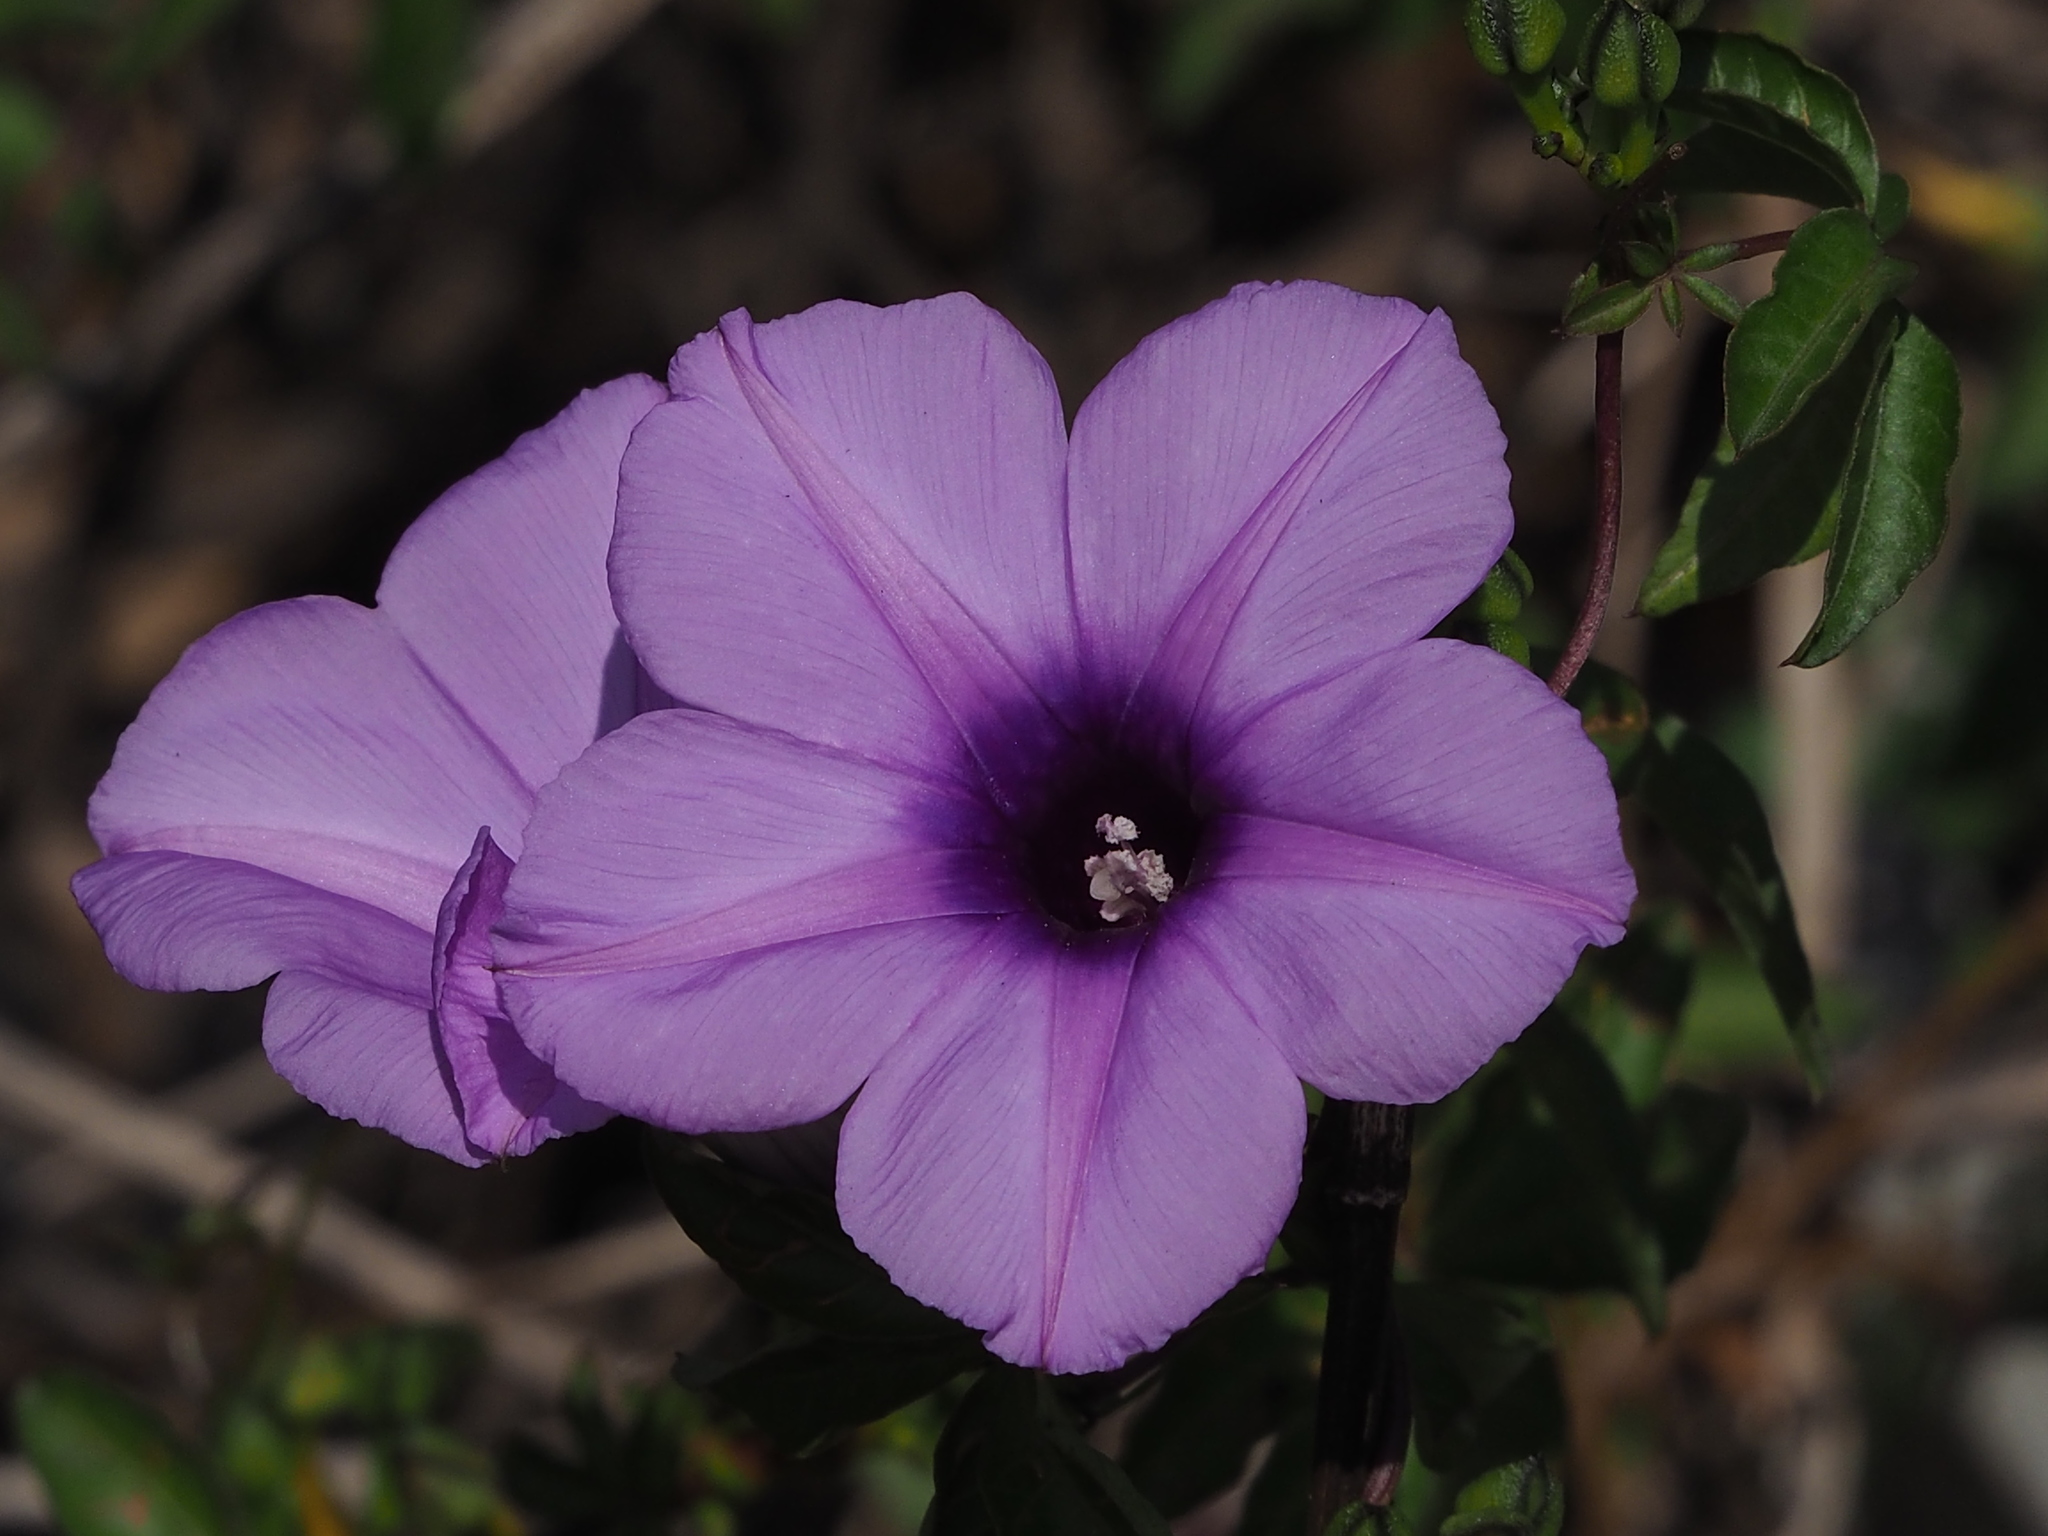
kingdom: Plantae
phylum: Tracheophyta
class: Magnoliopsida
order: Solanales
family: Convolvulaceae
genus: Ipomoea
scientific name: Ipomoea cairica
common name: Mile a minute vine
